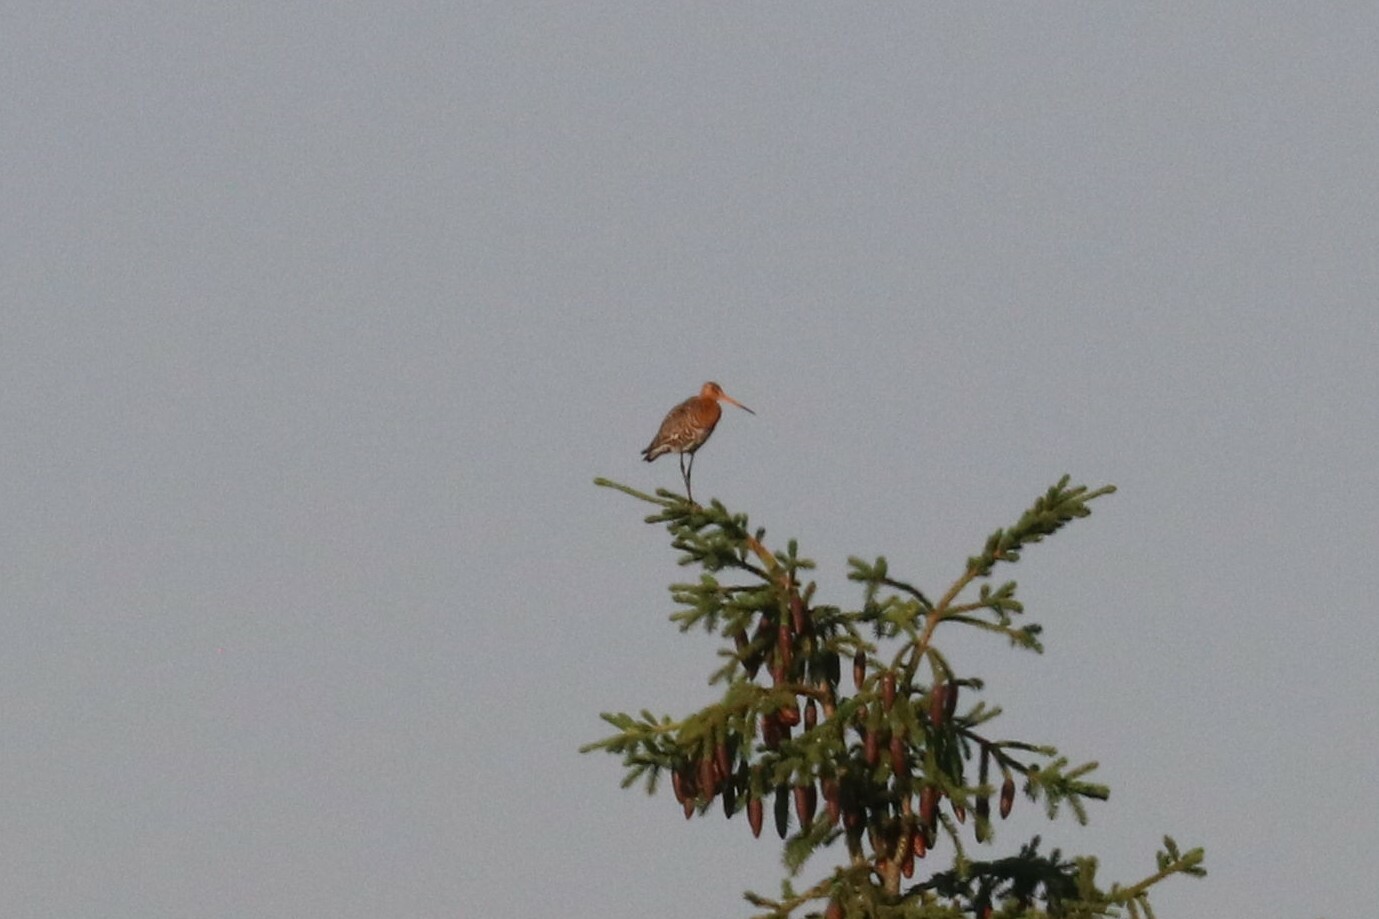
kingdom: Animalia
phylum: Chordata
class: Aves
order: Charadriiformes
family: Scolopacidae
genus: Limosa
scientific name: Limosa limosa
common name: Black-tailed godwit
